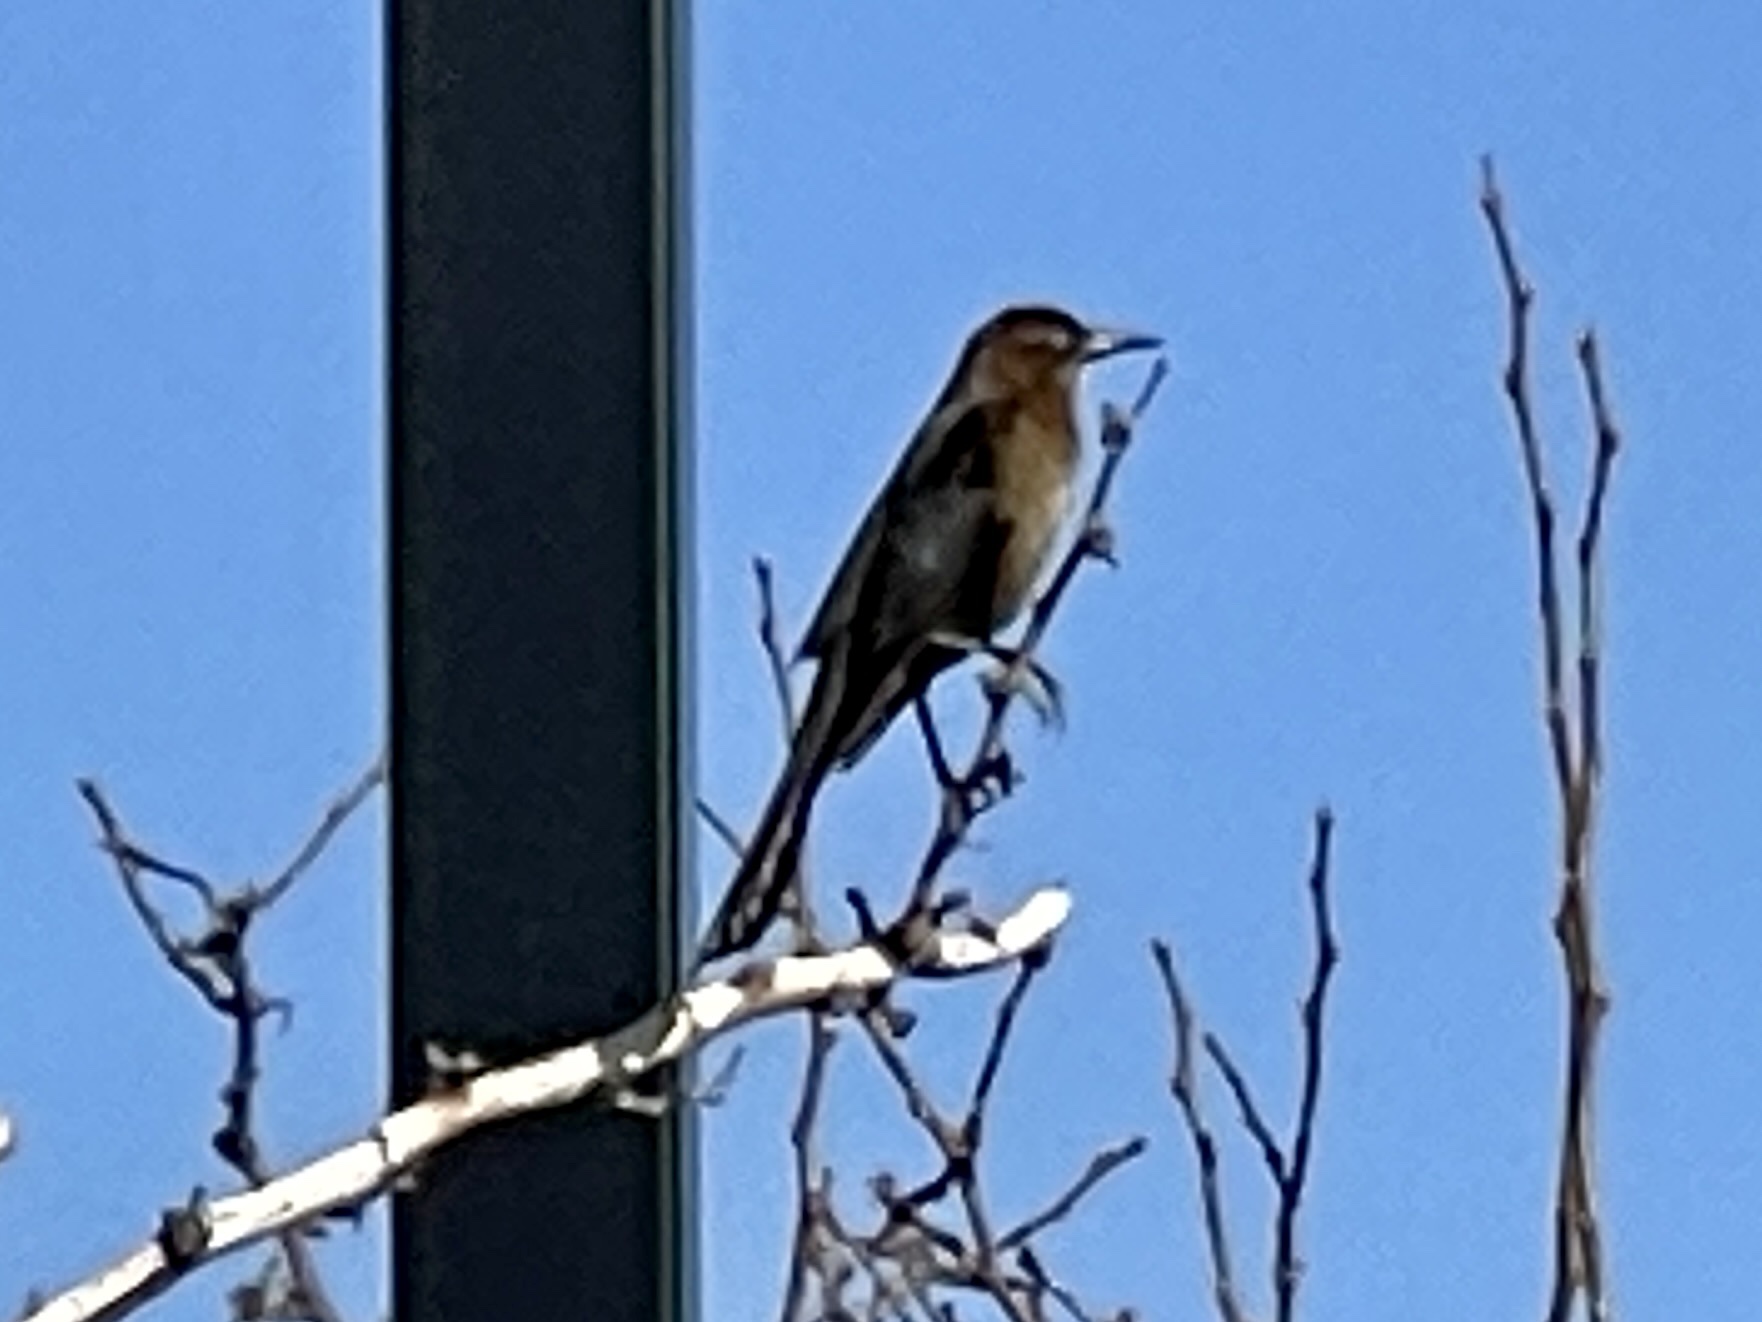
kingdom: Animalia
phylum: Chordata
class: Aves
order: Passeriformes
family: Icteridae
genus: Quiscalus
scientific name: Quiscalus mexicanus
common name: Great-tailed grackle
